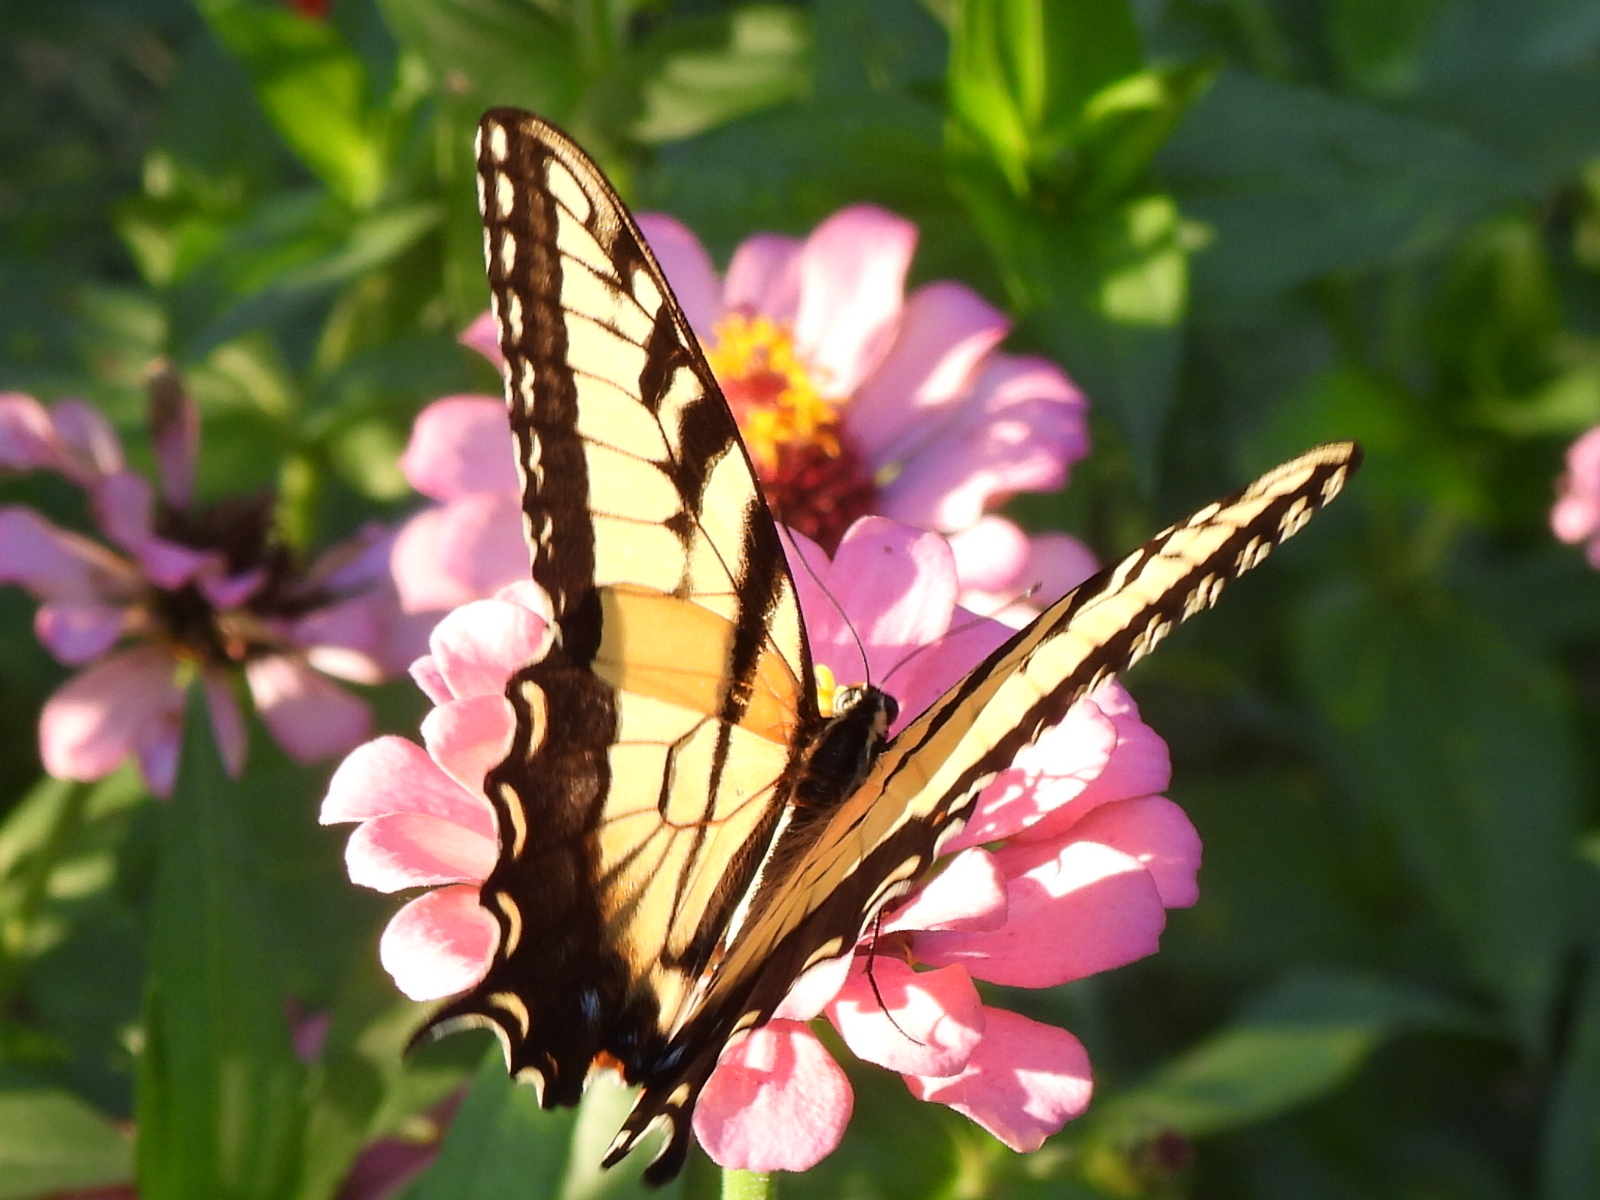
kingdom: Animalia
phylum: Arthropoda
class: Insecta
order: Lepidoptera
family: Papilionidae
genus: Papilio
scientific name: Papilio glaucus
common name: Tiger swallowtail
